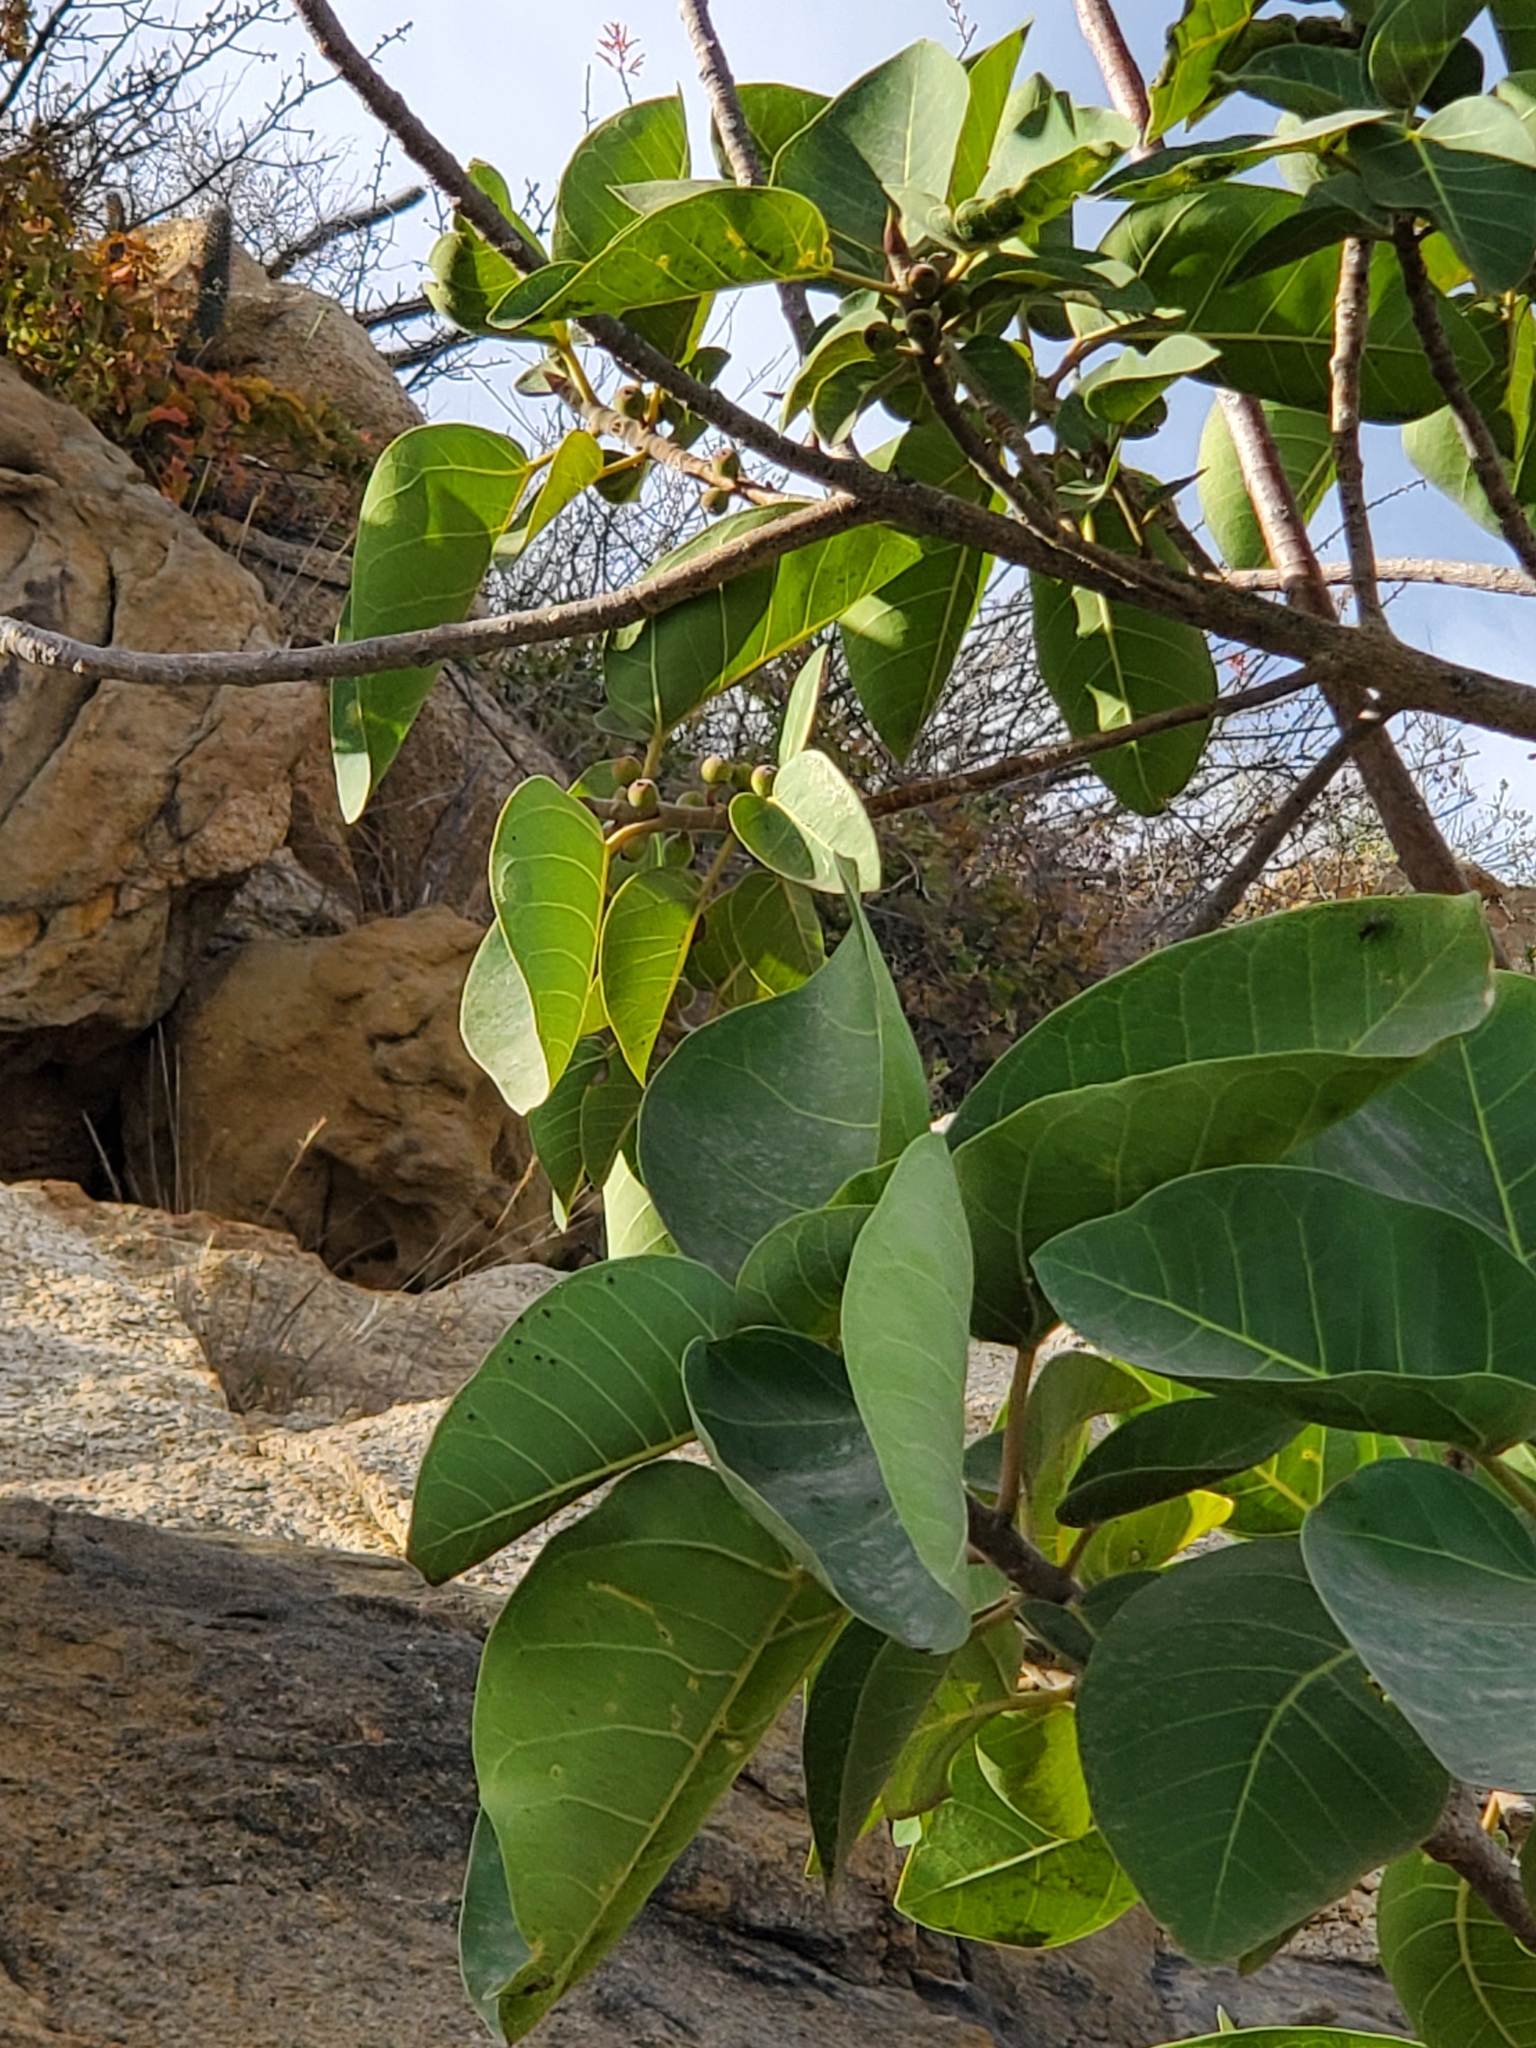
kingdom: Plantae
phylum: Tracheophyta
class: Magnoliopsida
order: Rosales
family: Moraceae
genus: Ficus
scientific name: Ficus petiolaris
